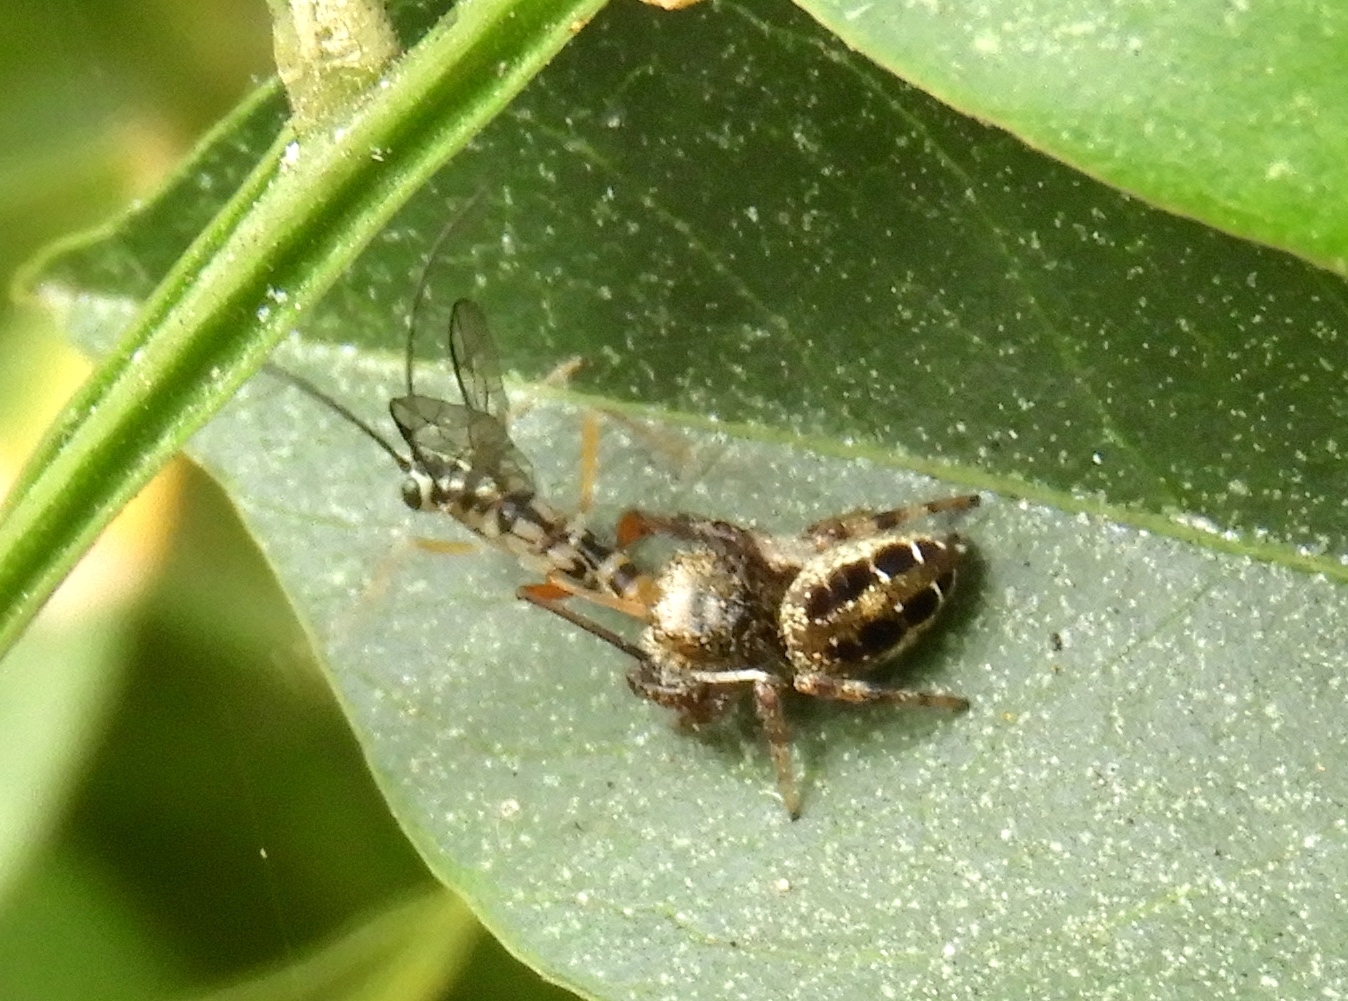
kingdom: Animalia
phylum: Arthropoda
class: Arachnida
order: Araneae
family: Salticidae
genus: Paraphidippus
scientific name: Paraphidippus aurantius
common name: Jumping spiders
